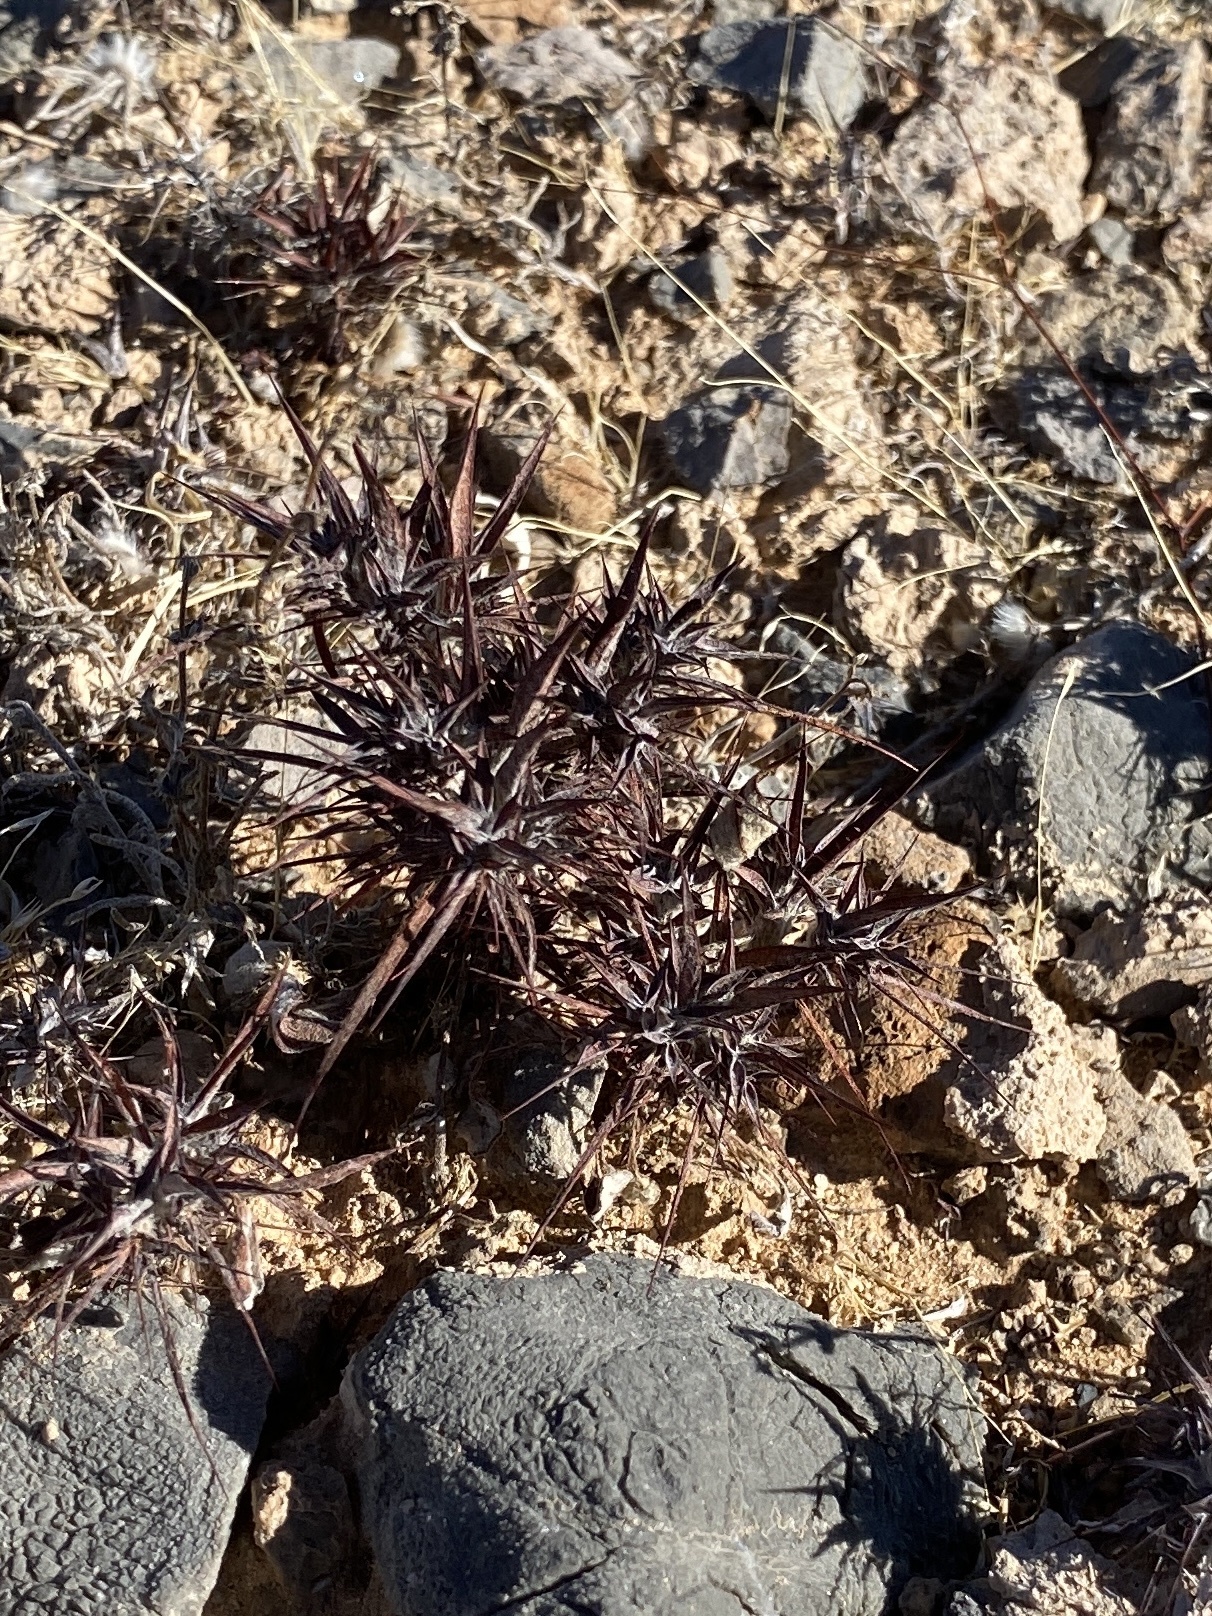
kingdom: Plantae
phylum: Tracheophyta
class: Magnoliopsida
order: Caryophyllales
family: Polygonaceae
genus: Chorizanthe
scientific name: Chorizanthe rigida
